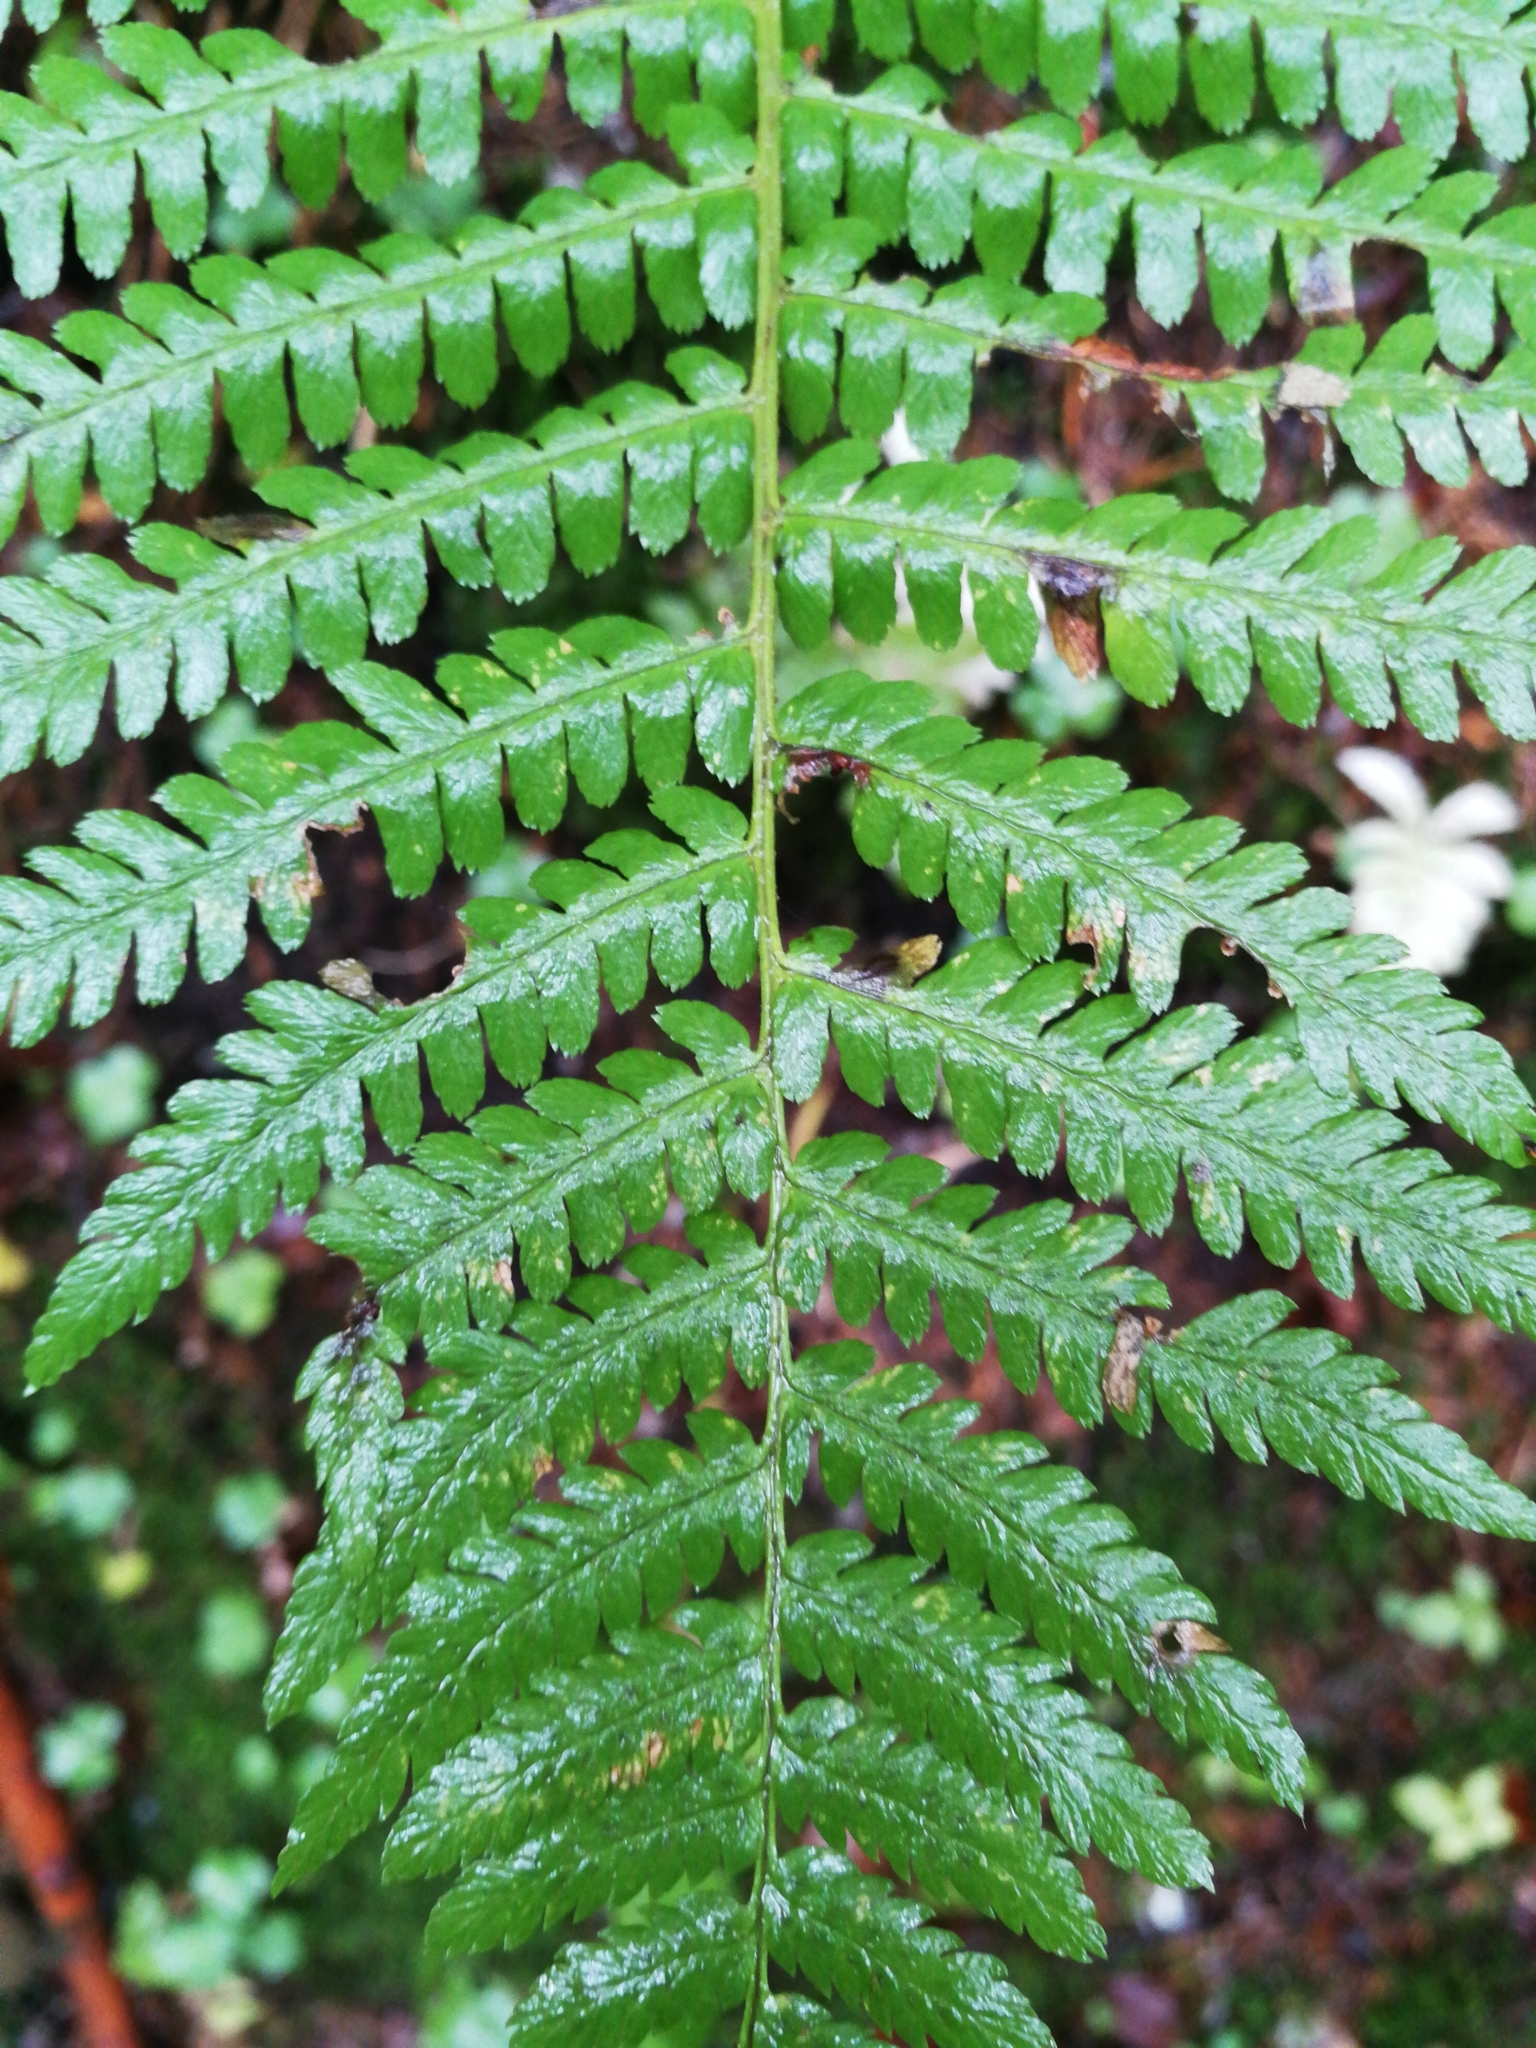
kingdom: Plantae
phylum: Tracheophyta
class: Polypodiopsida
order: Polypodiales
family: Dryopteridaceae
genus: Dryopteris
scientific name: Dryopteris filix-mas
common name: Male fern
